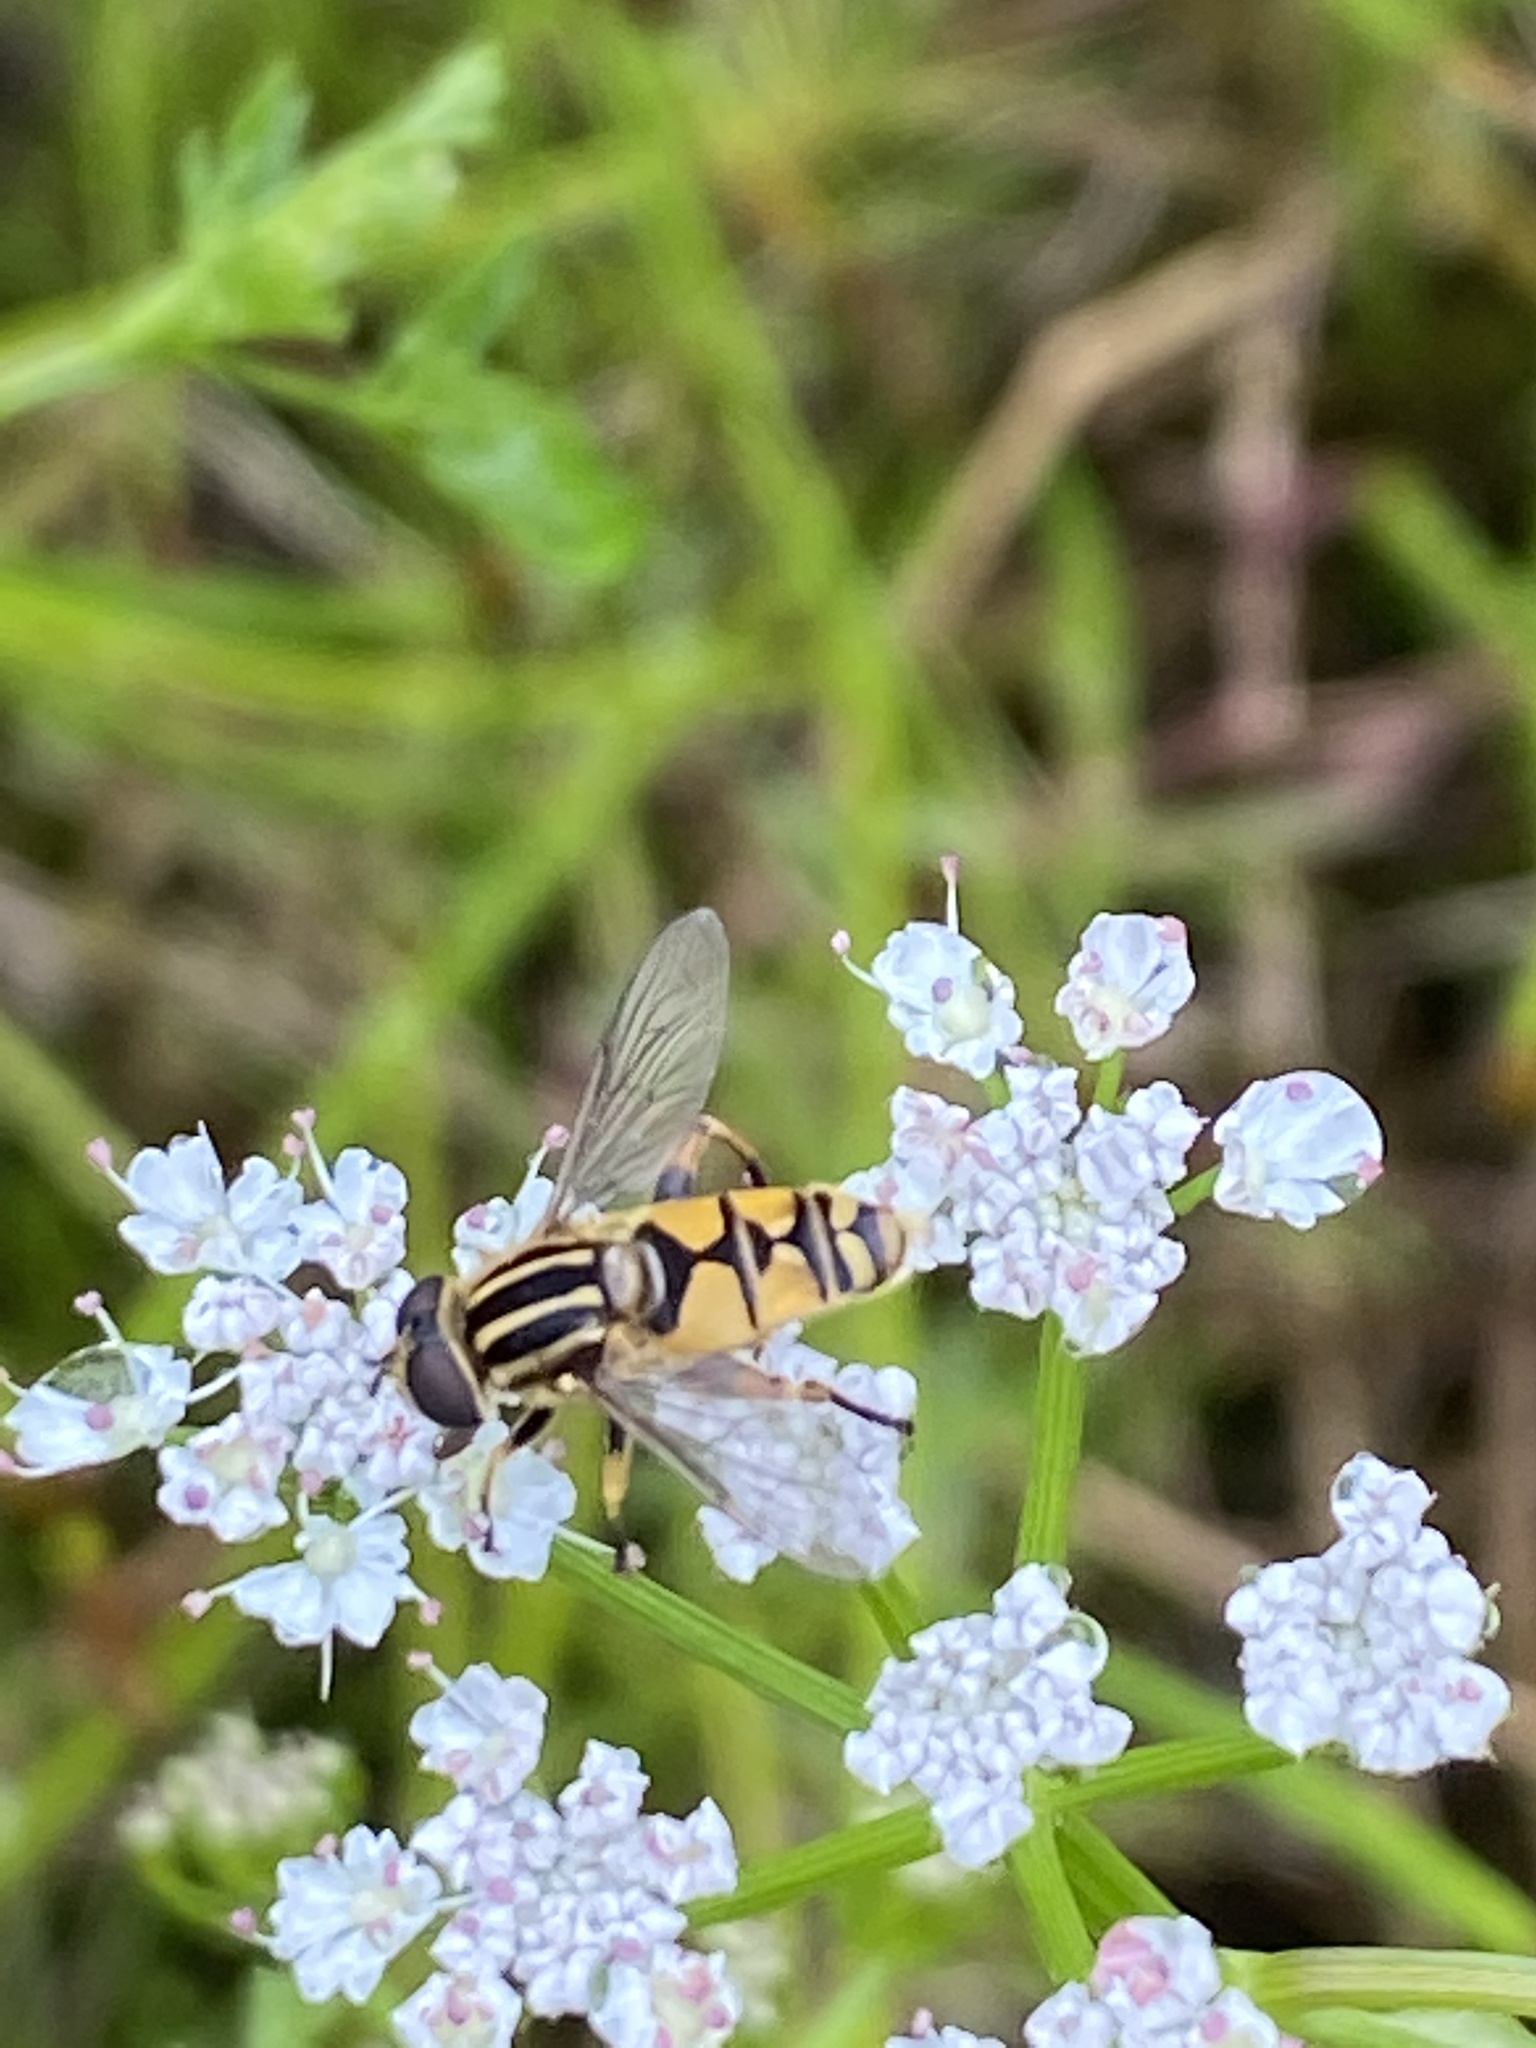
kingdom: Animalia
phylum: Arthropoda
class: Insecta
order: Diptera
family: Syrphidae
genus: Helophilus
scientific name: Helophilus pendulus
